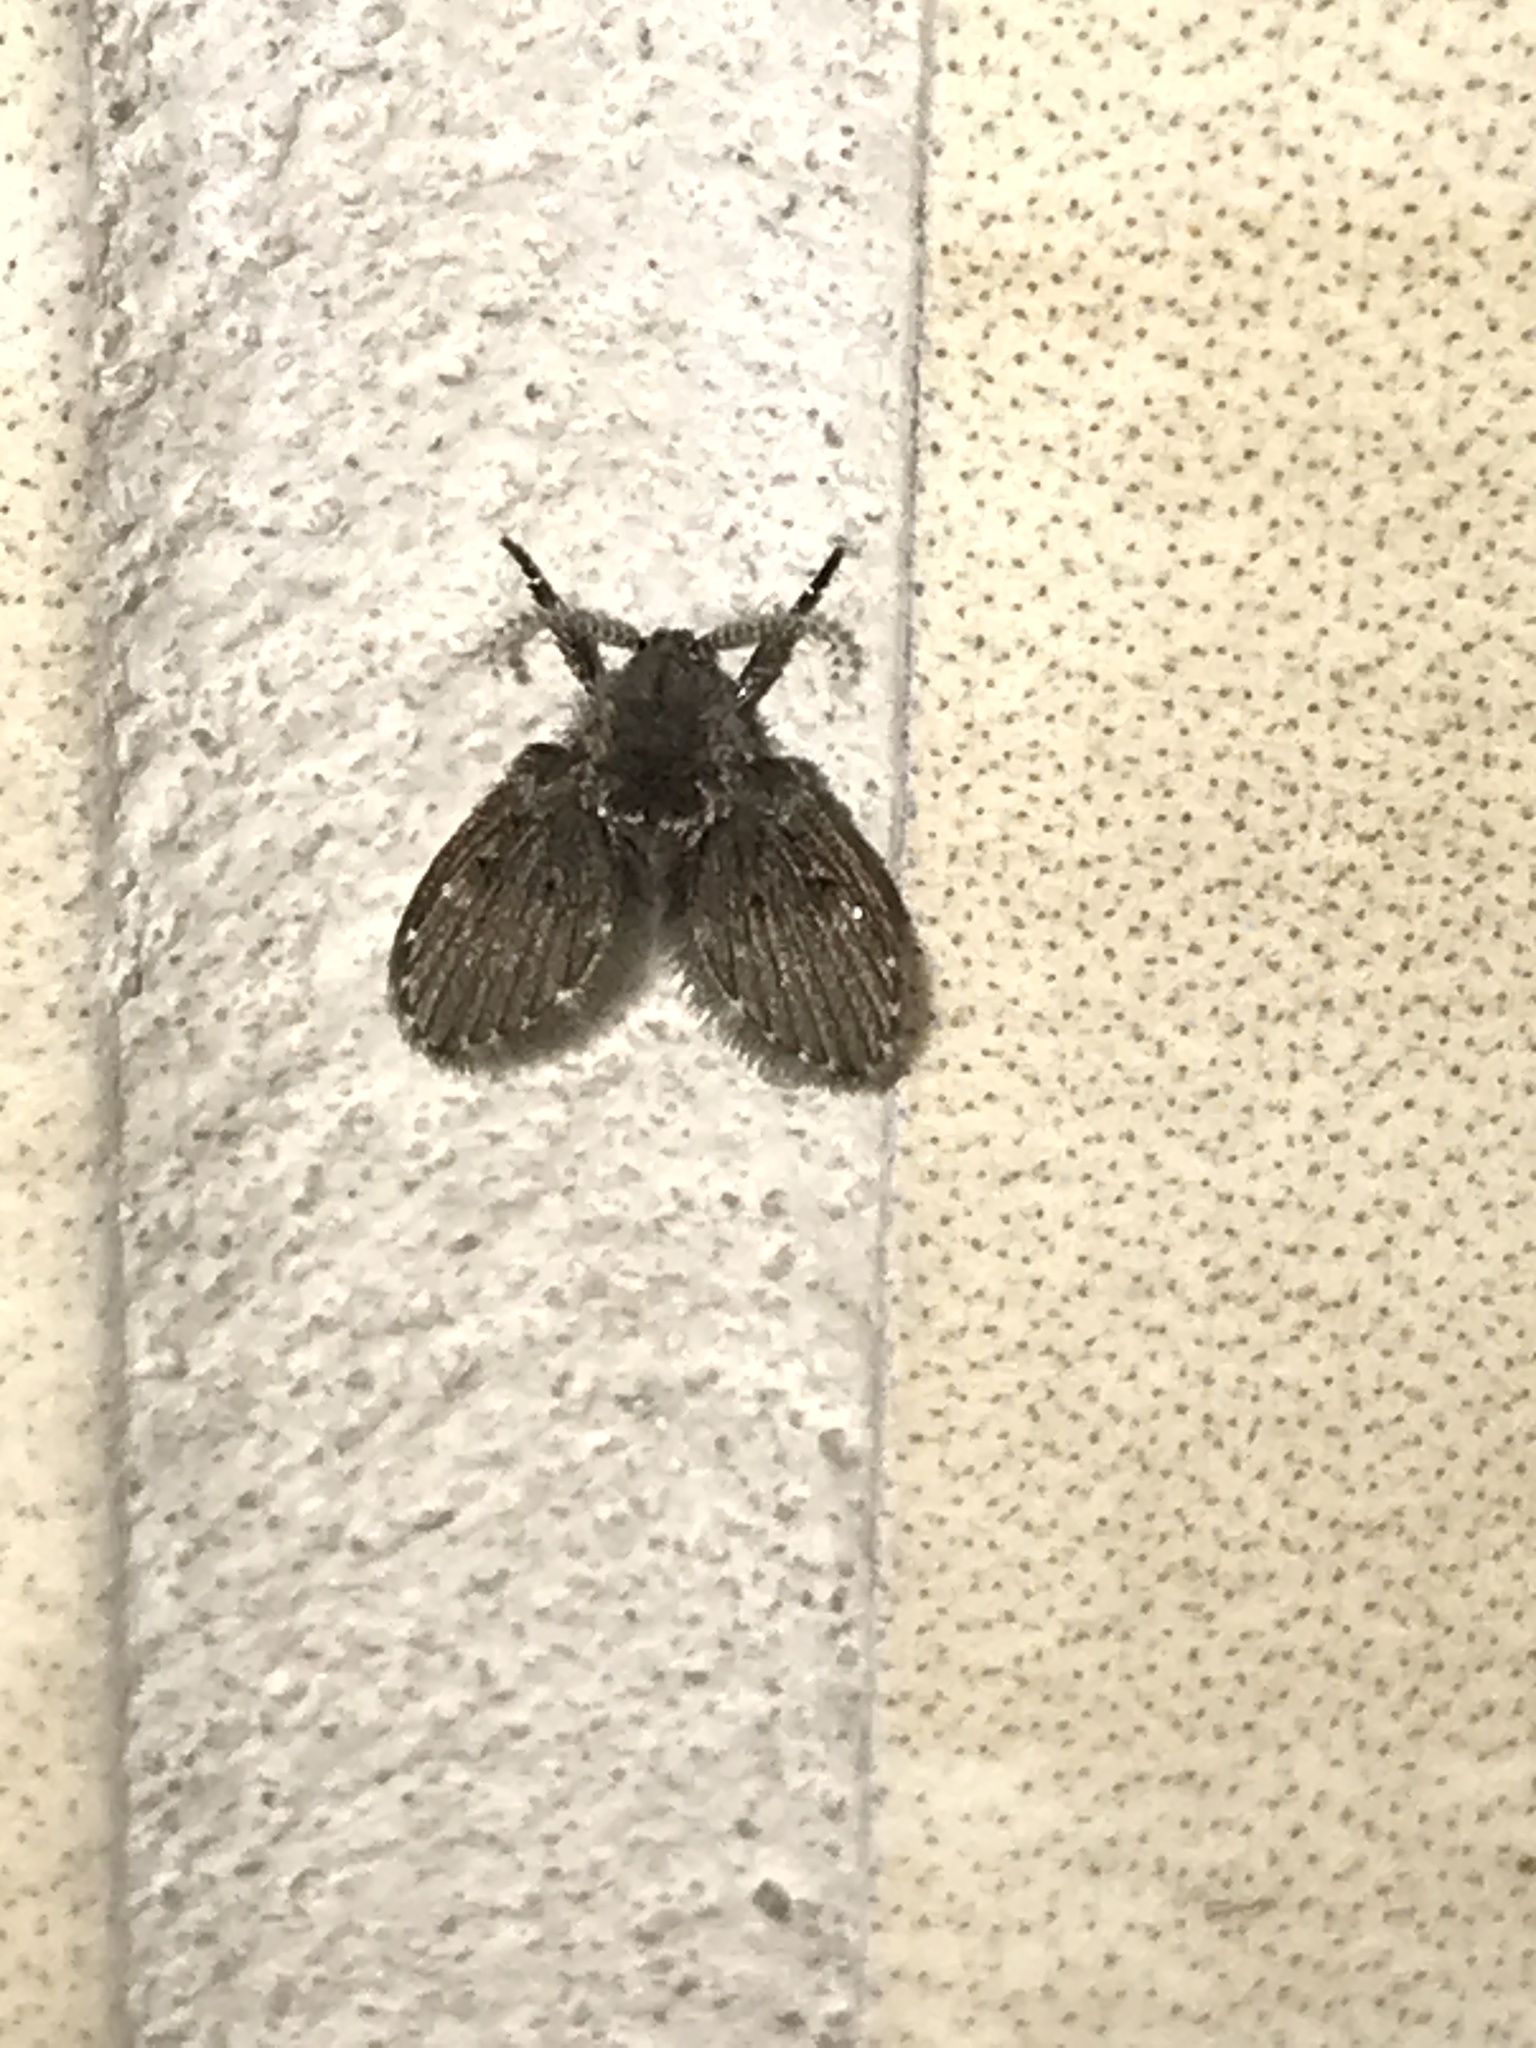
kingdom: Animalia
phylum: Arthropoda
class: Insecta
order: Diptera
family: Psychodidae
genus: Clogmia
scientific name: Clogmia albipunctatus
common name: White-spotted moth fly
